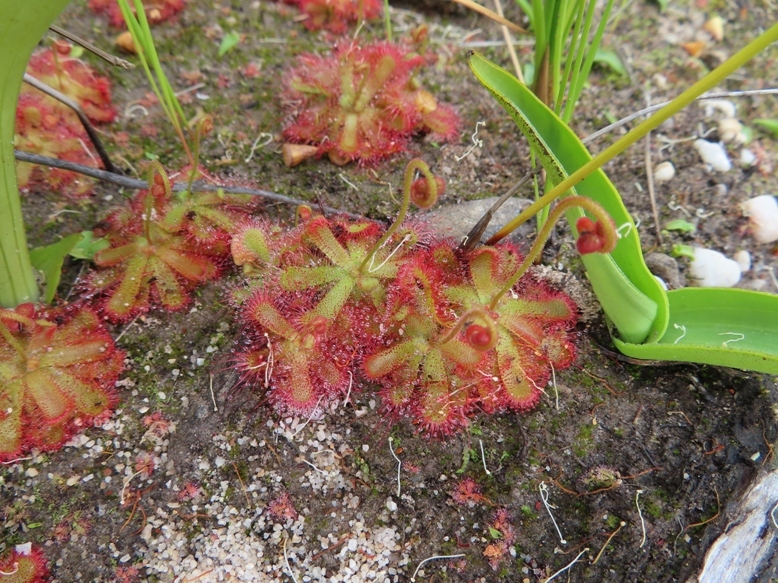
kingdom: Plantae
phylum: Tracheophyta
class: Magnoliopsida
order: Caryophyllales
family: Droseraceae
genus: Drosera
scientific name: Drosera trinervia
